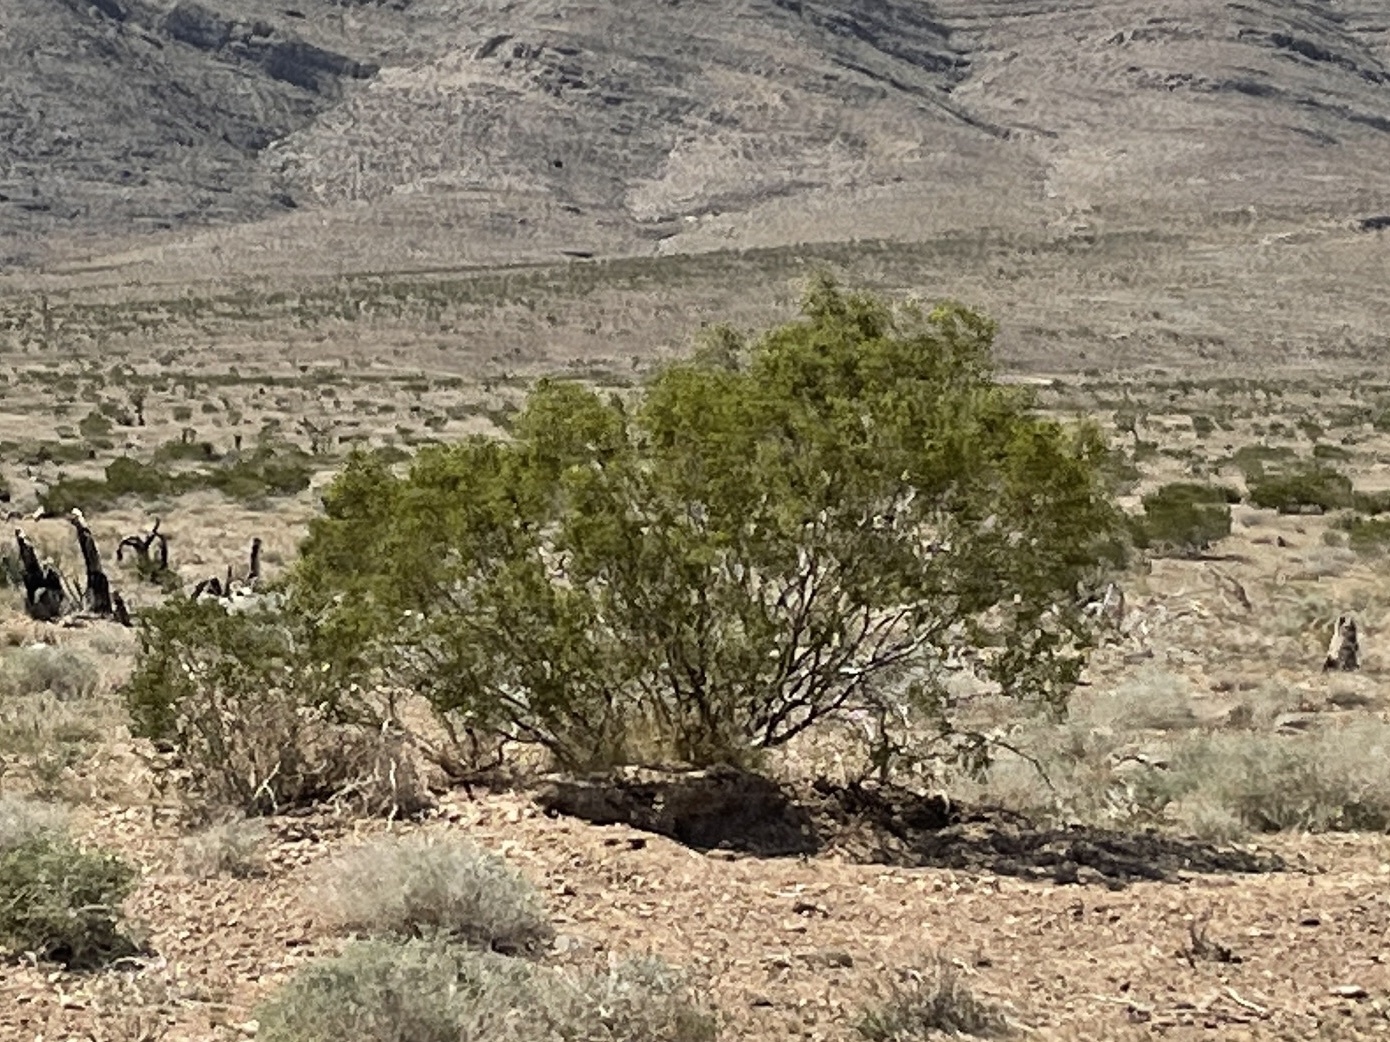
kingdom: Plantae
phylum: Tracheophyta
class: Magnoliopsida
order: Zygophyllales
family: Zygophyllaceae
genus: Larrea
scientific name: Larrea tridentata
